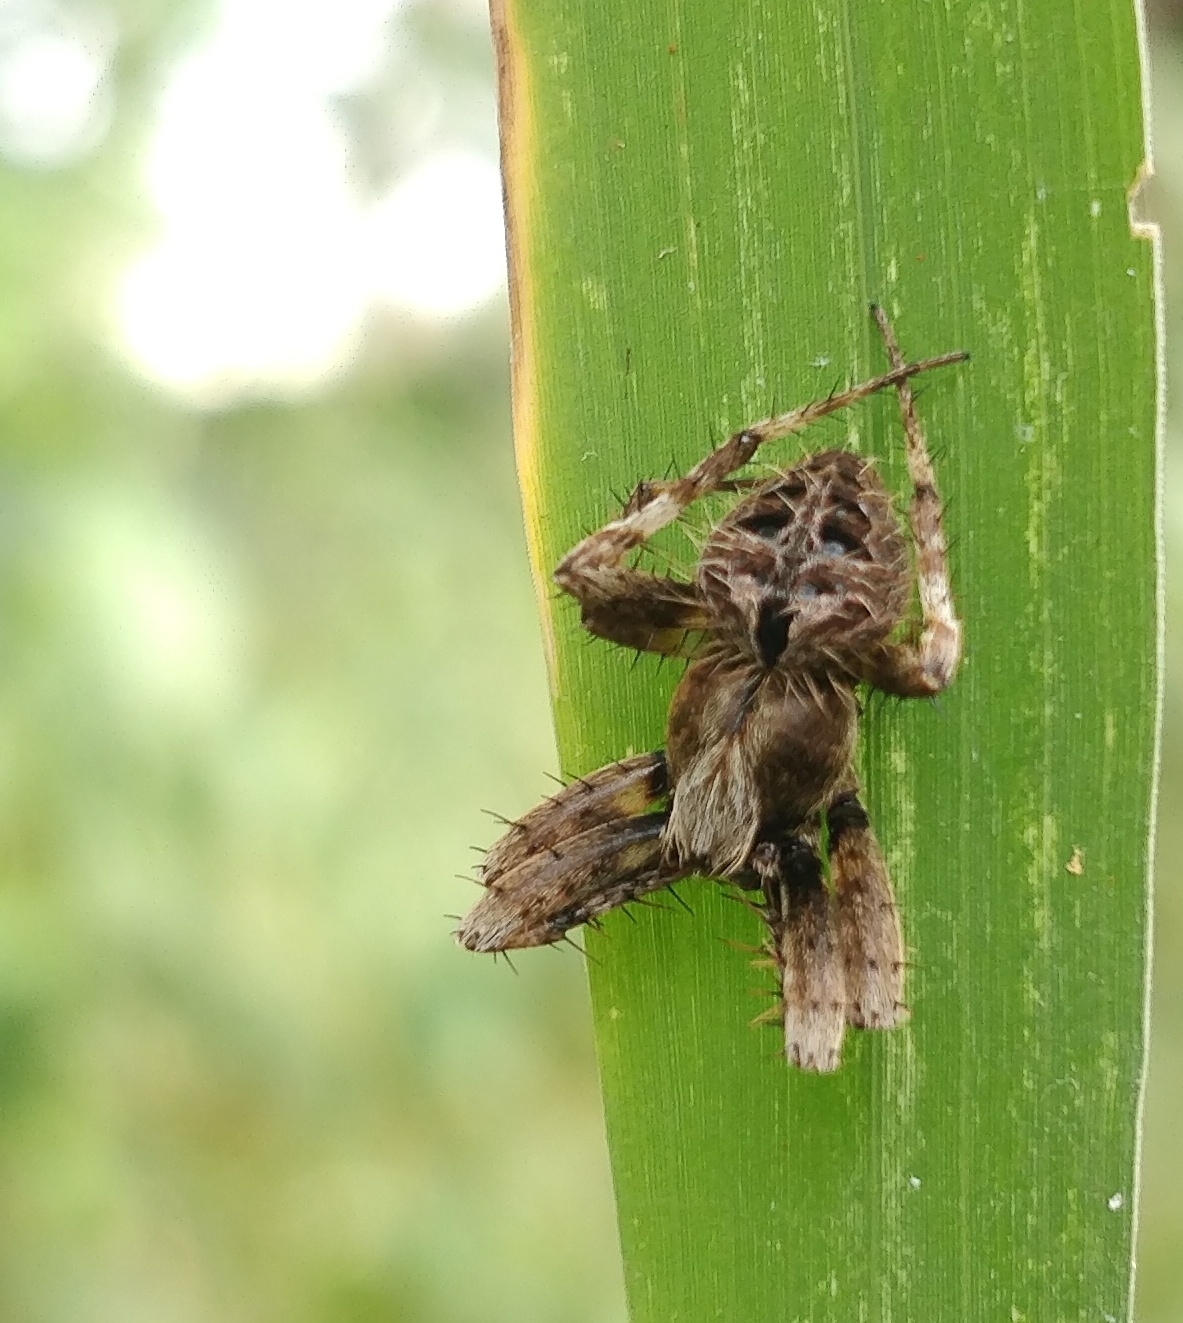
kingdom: Animalia
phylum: Arthropoda
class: Arachnida
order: Araneae
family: Araneidae
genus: Neoscona
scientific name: Neoscona mukerjei
